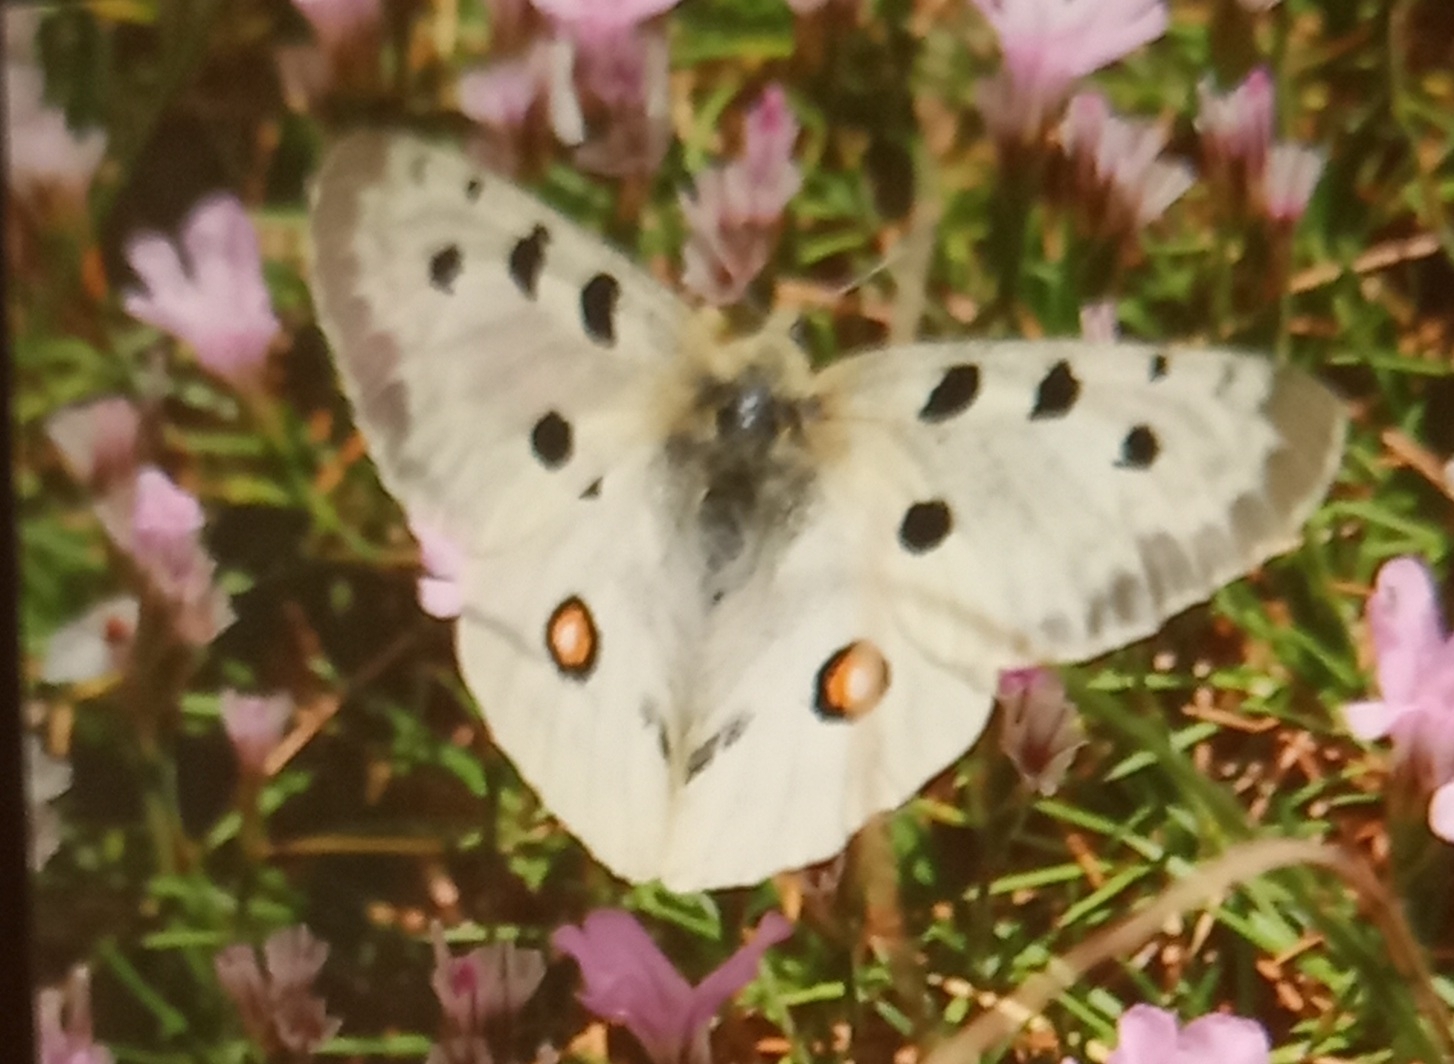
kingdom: Animalia
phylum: Arthropoda
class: Insecta
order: Lepidoptera
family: Papilionidae
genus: Parnassius
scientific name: Parnassius apollo
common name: Apollo
